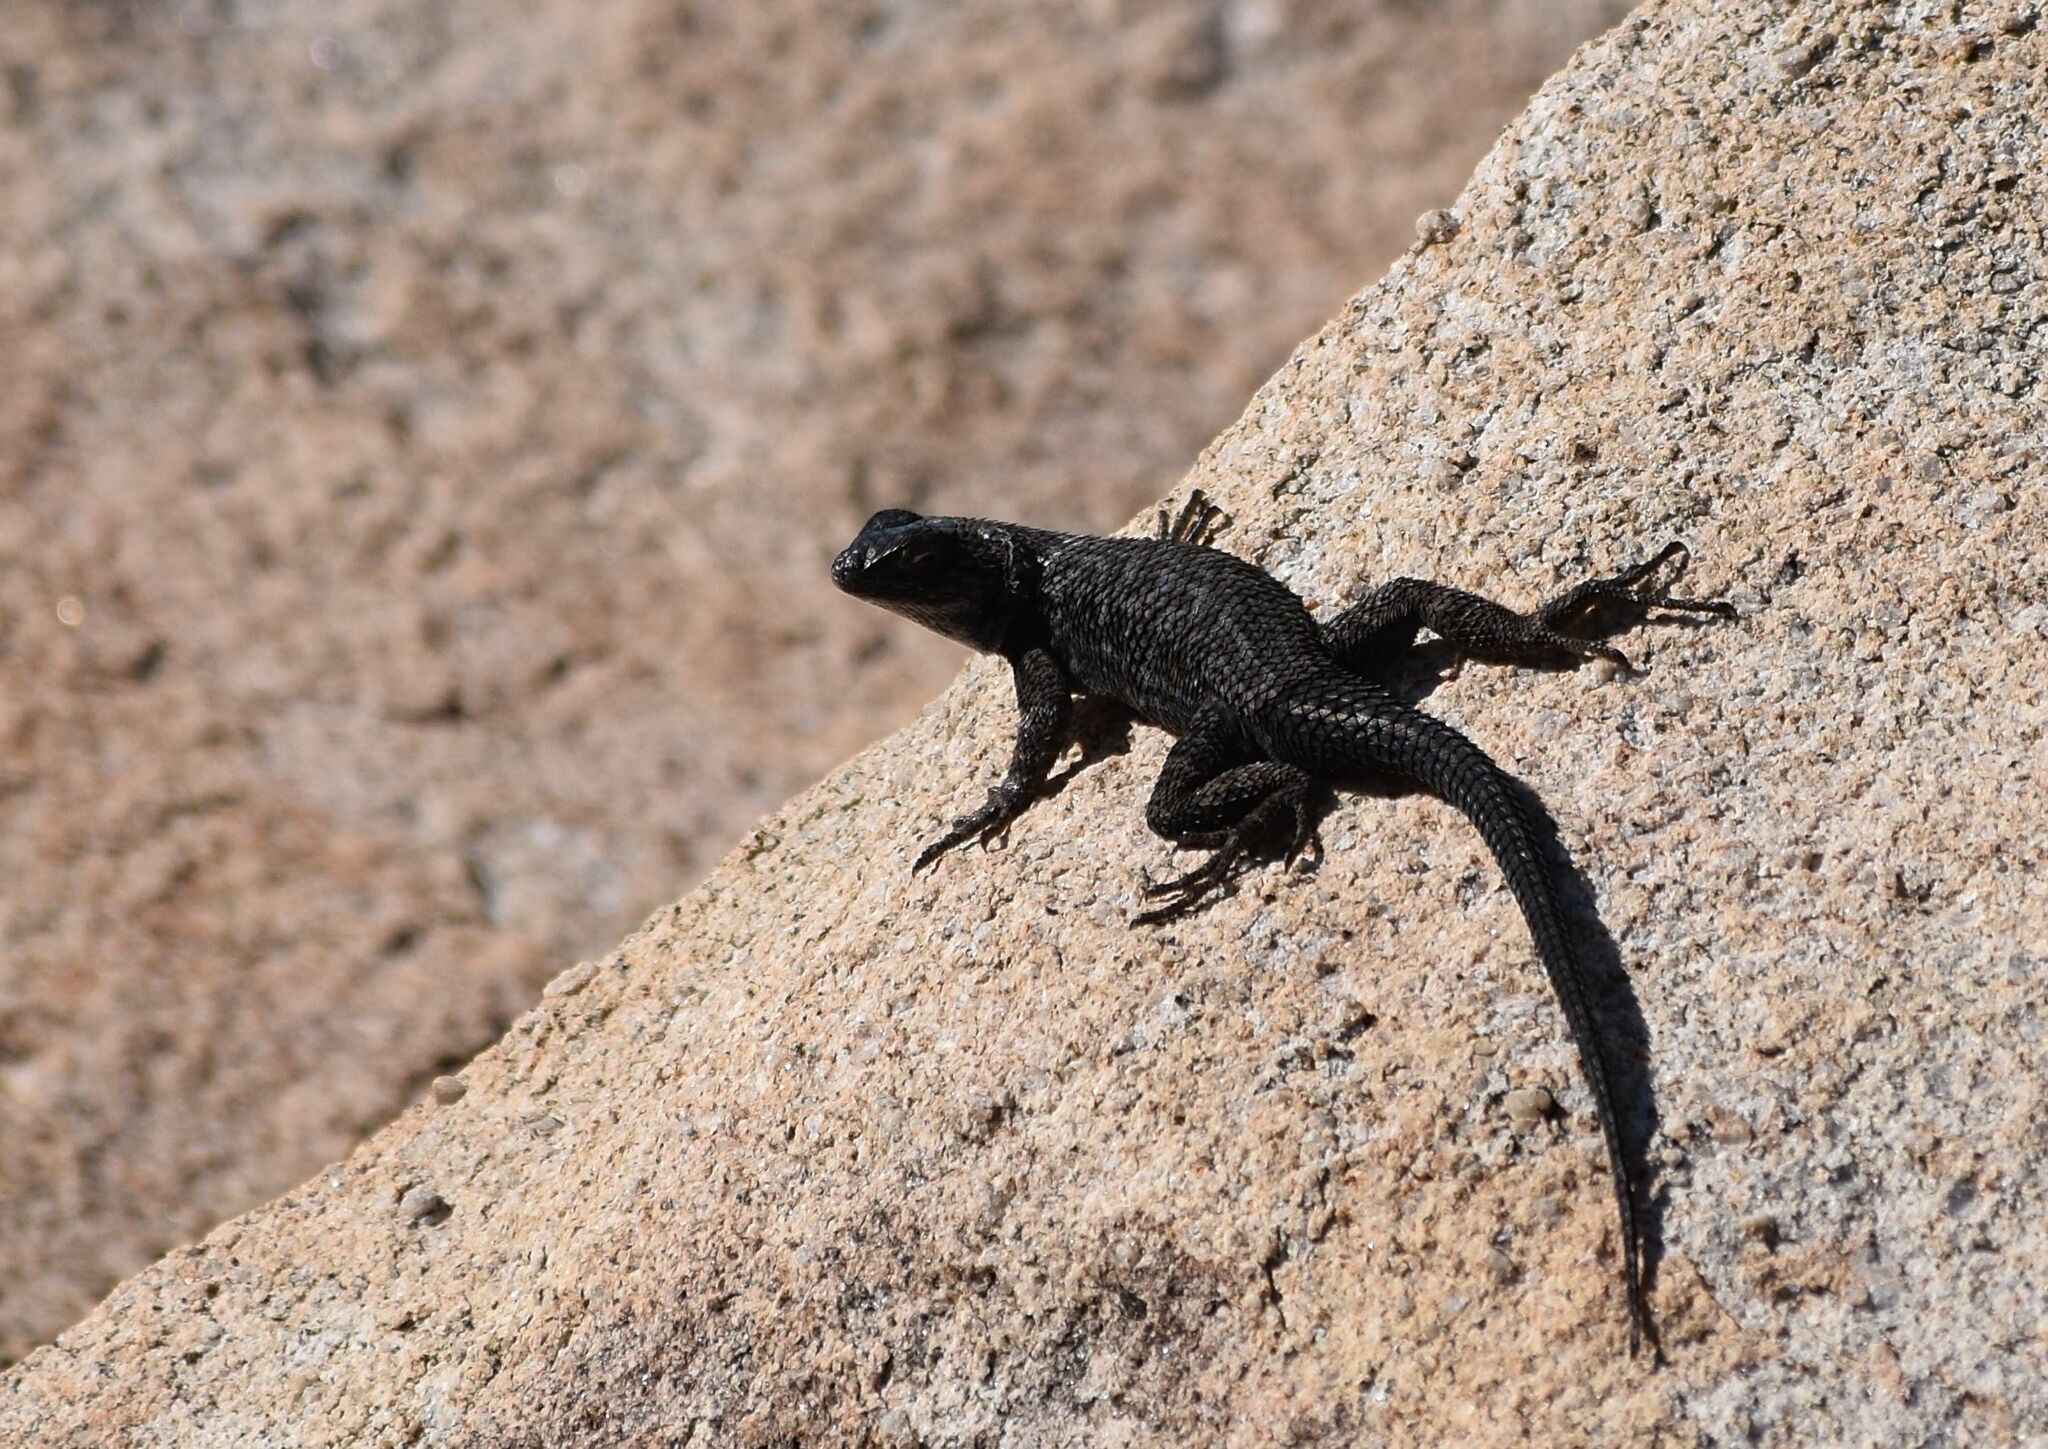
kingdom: Animalia
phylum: Chordata
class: Squamata
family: Phrynosomatidae
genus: Sceloporus
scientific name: Sceloporus occidentalis
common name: Western fence lizard
